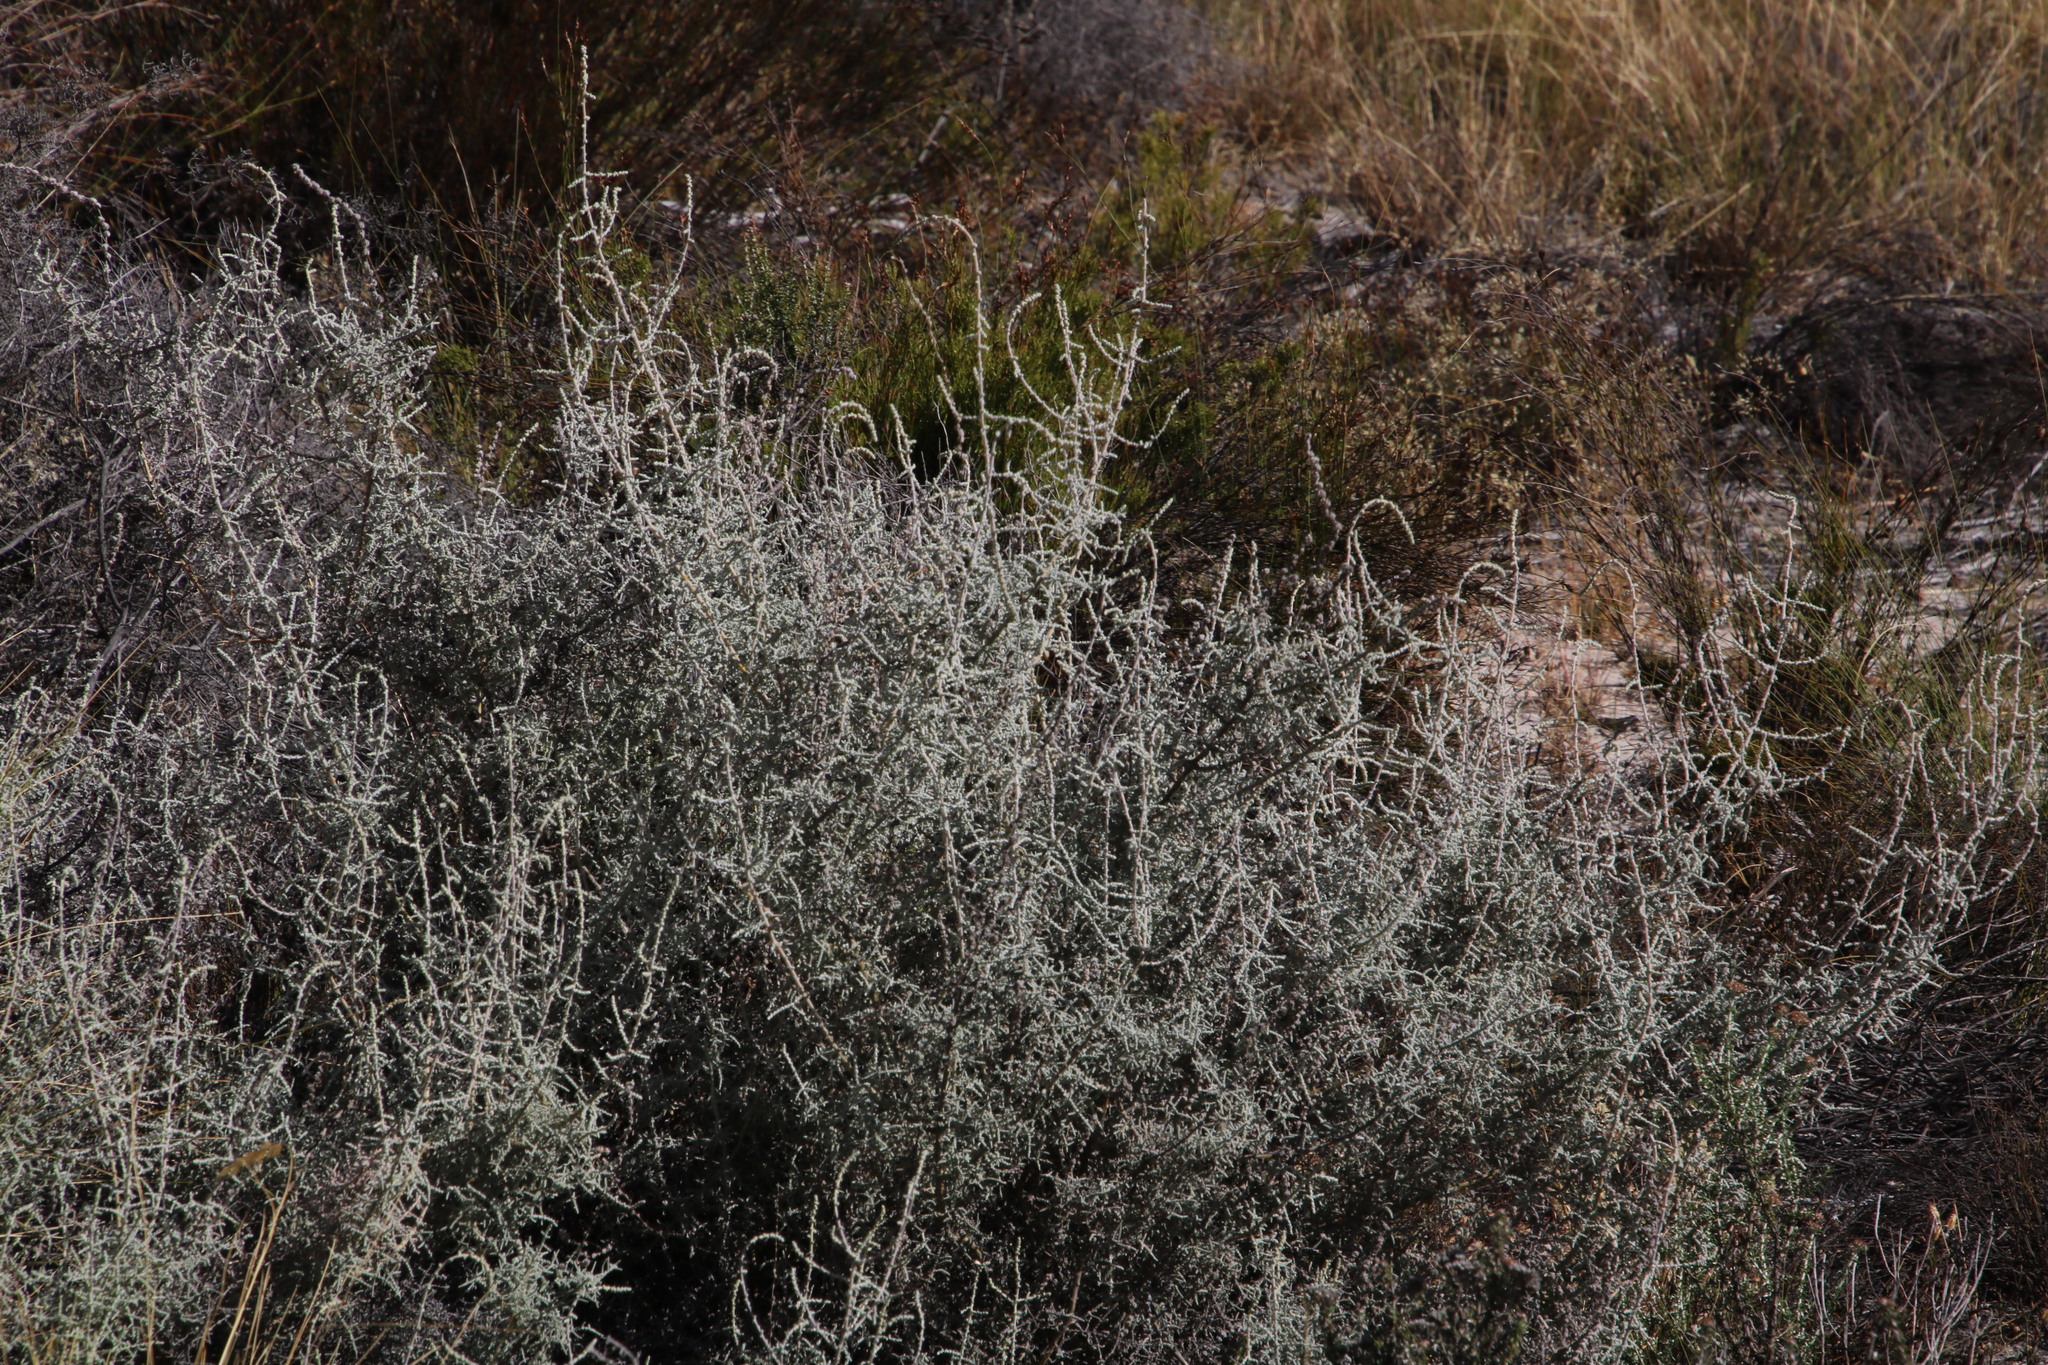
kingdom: Plantae
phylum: Tracheophyta
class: Magnoliopsida
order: Asterales
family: Asteraceae
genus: Seriphium
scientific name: Seriphium plumosum
